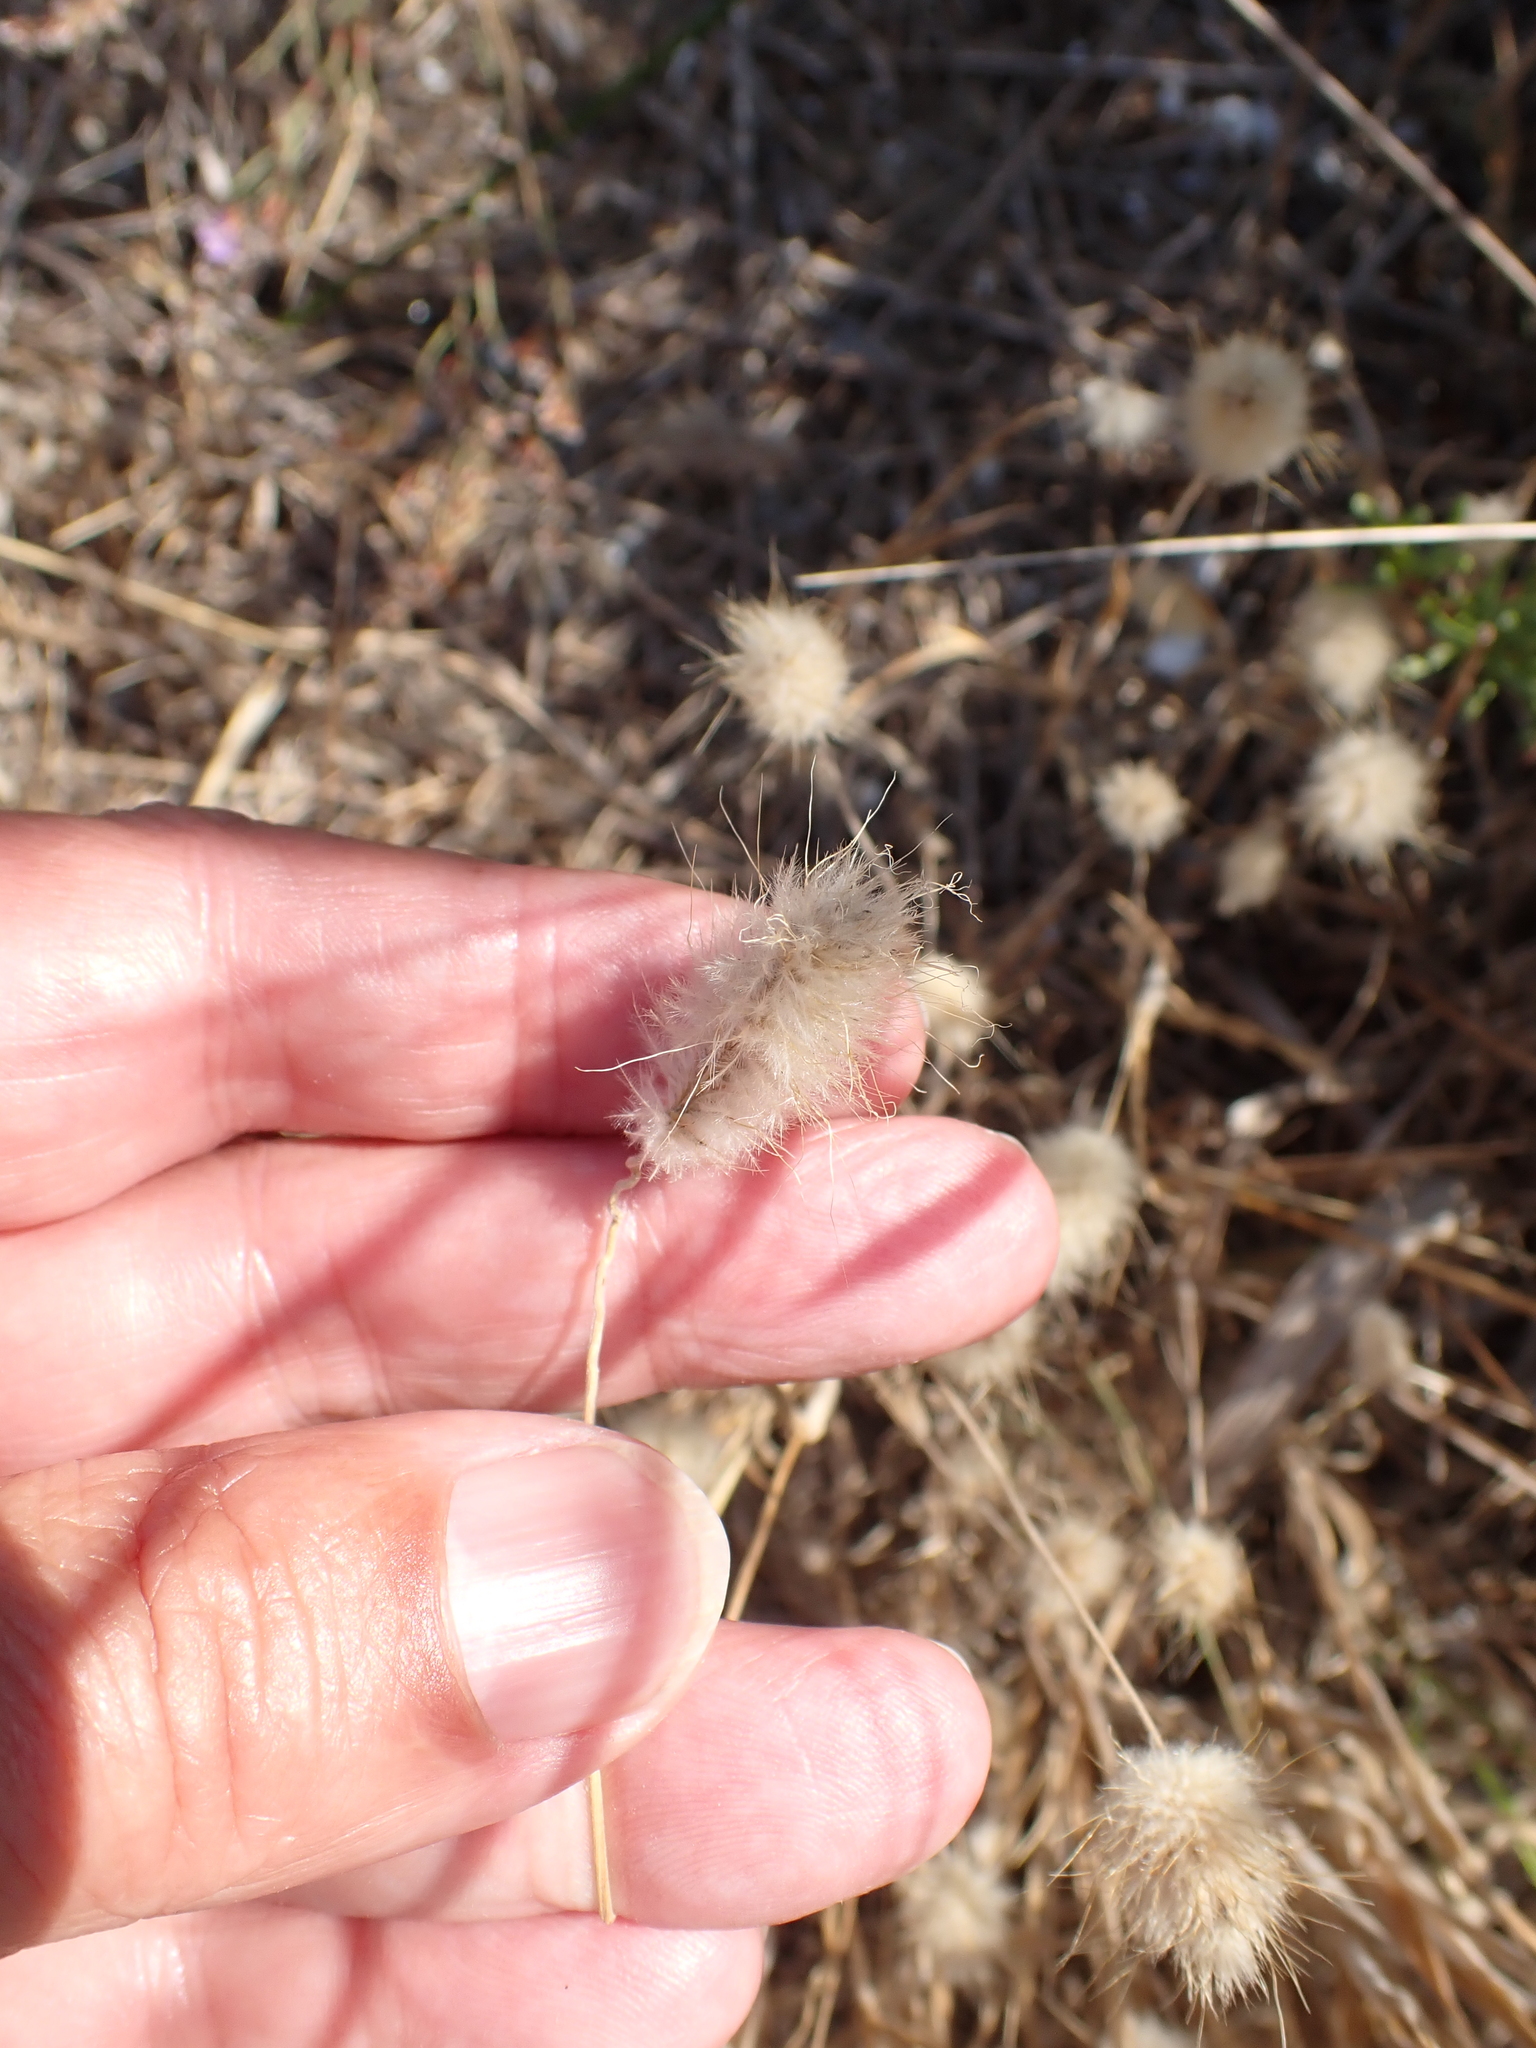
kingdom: Plantae
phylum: Tracheophyta
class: Liliopsida
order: Poales
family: Poaceae
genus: Lagurus
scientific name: Lagurus ovatus
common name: Hare's-tail
